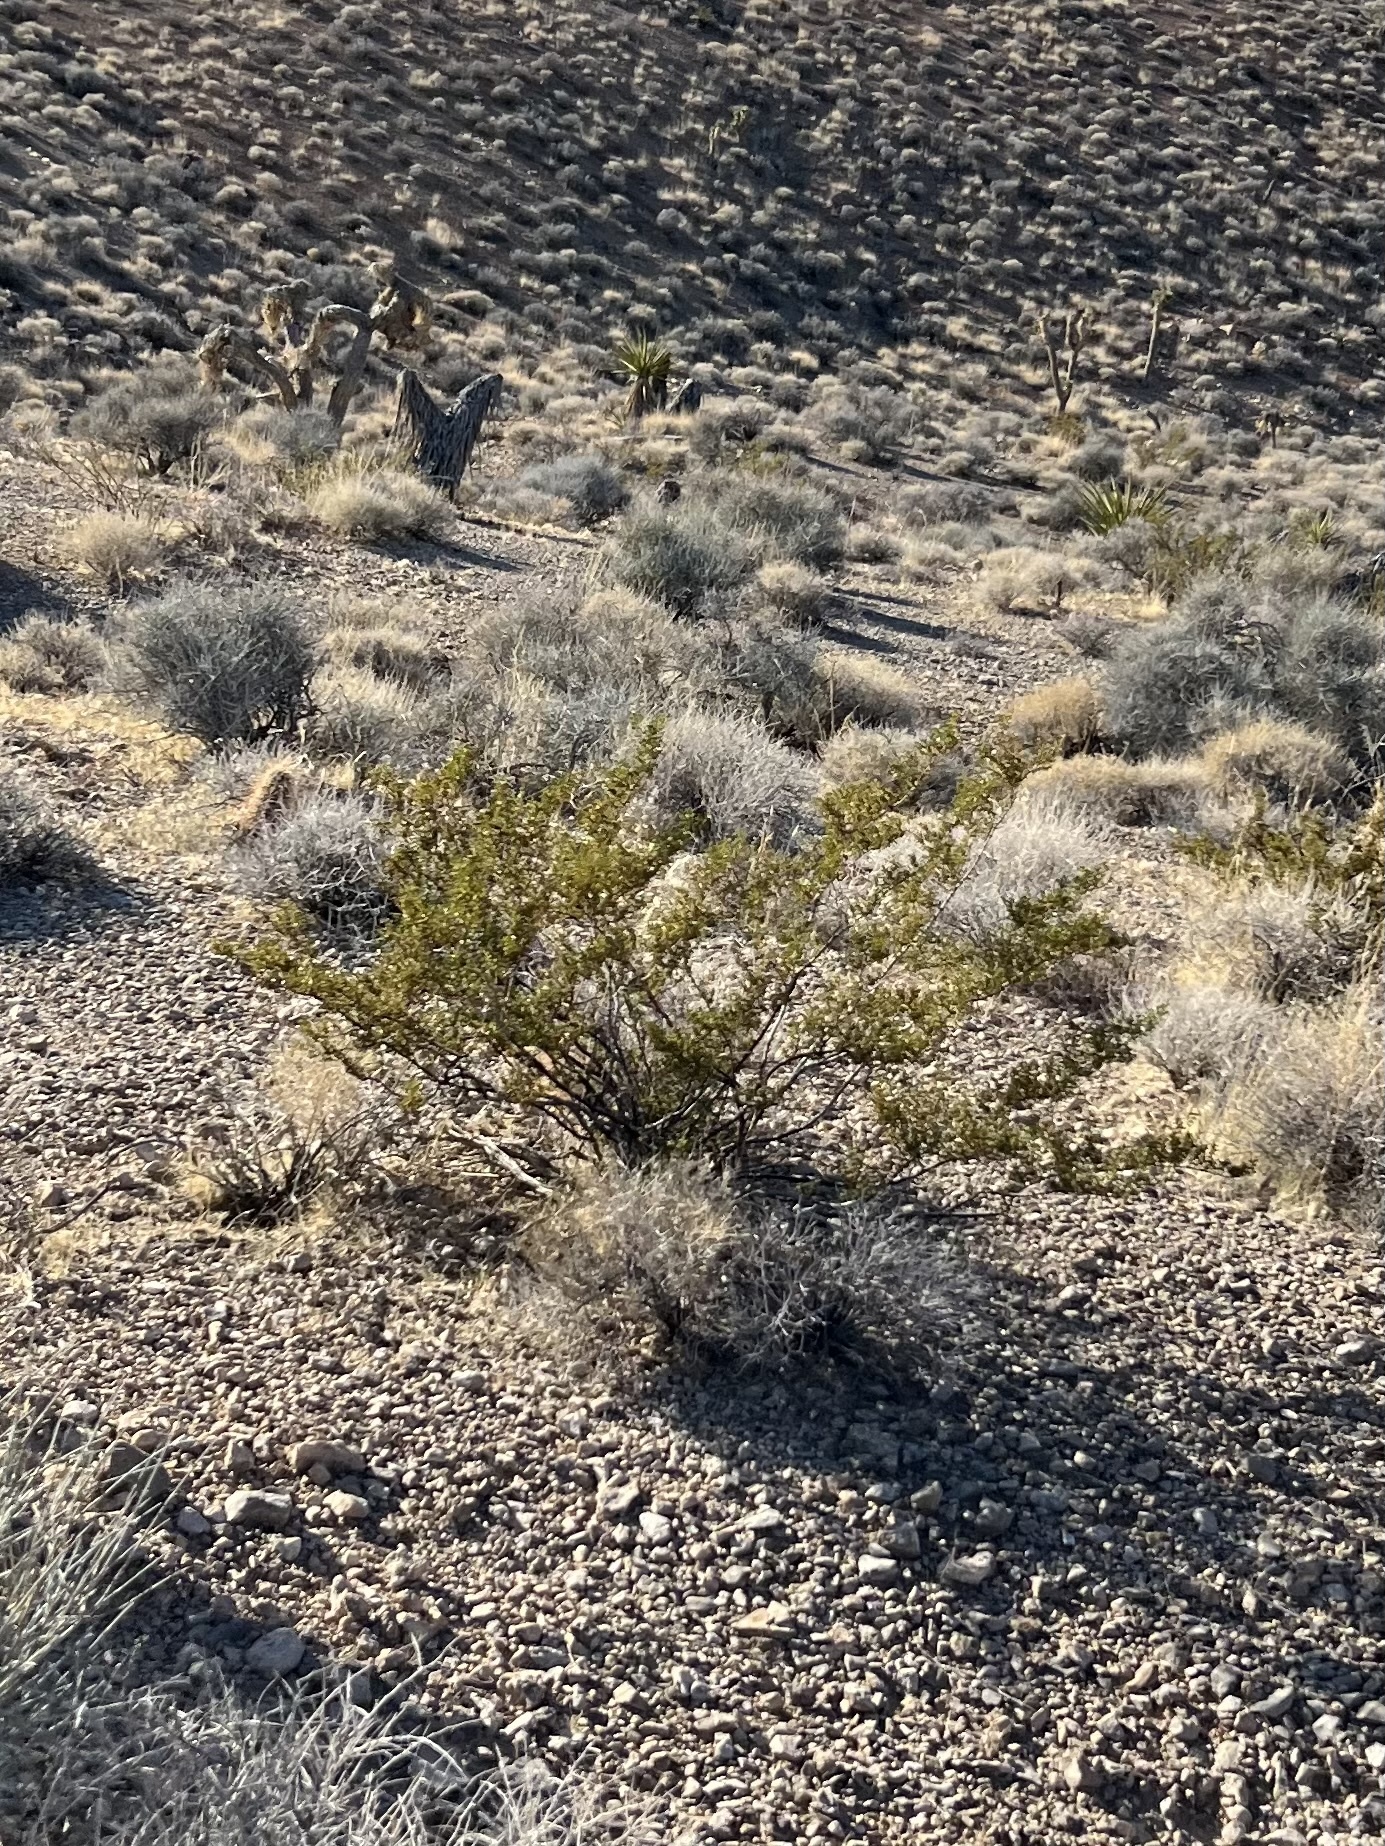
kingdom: Plantae
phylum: Tracheophyta
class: Magnoliopsida
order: Zygophyllales
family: Zygophyllaceae
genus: Larrea
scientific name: Larrea tridentata
